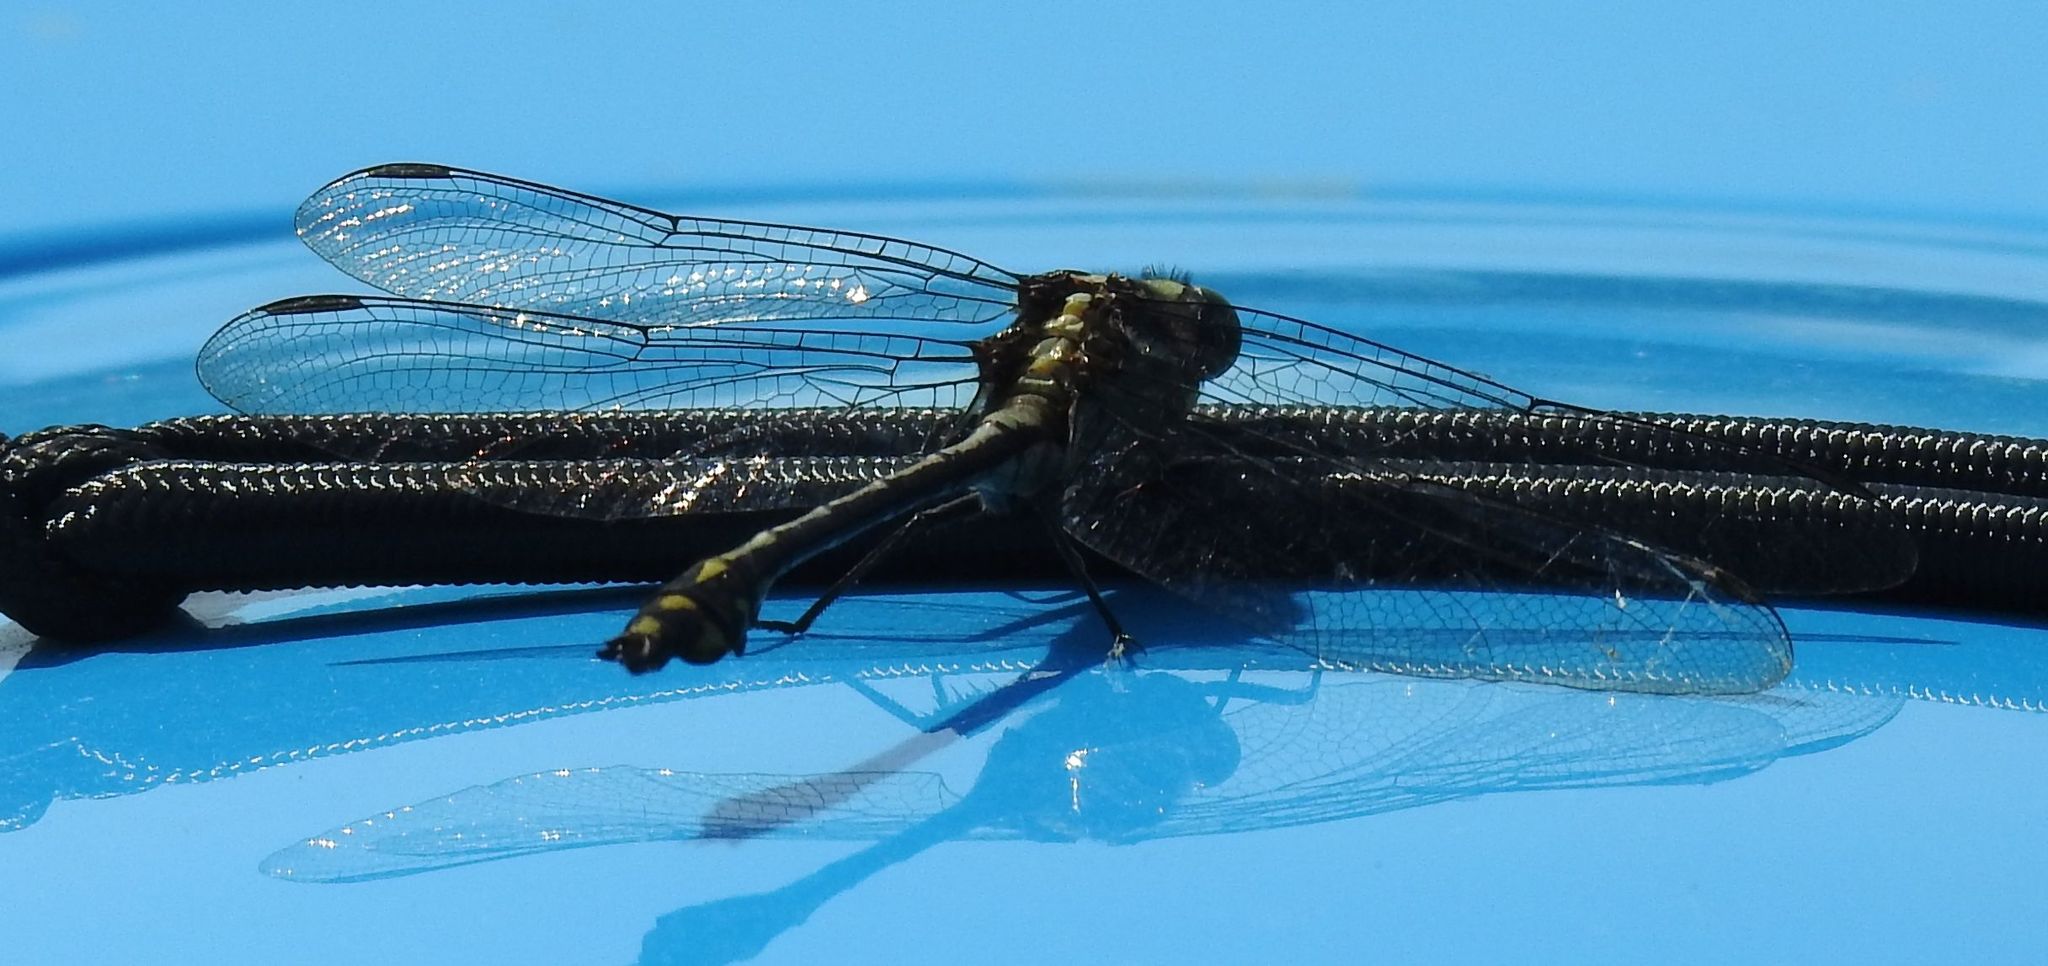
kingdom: Animalia
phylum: Arthropoda
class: Insecta
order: Odonata
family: Gomphidae
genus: Dromogomphus
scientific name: Dromogomphus spinosus
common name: Black-shouldered spinyleg
